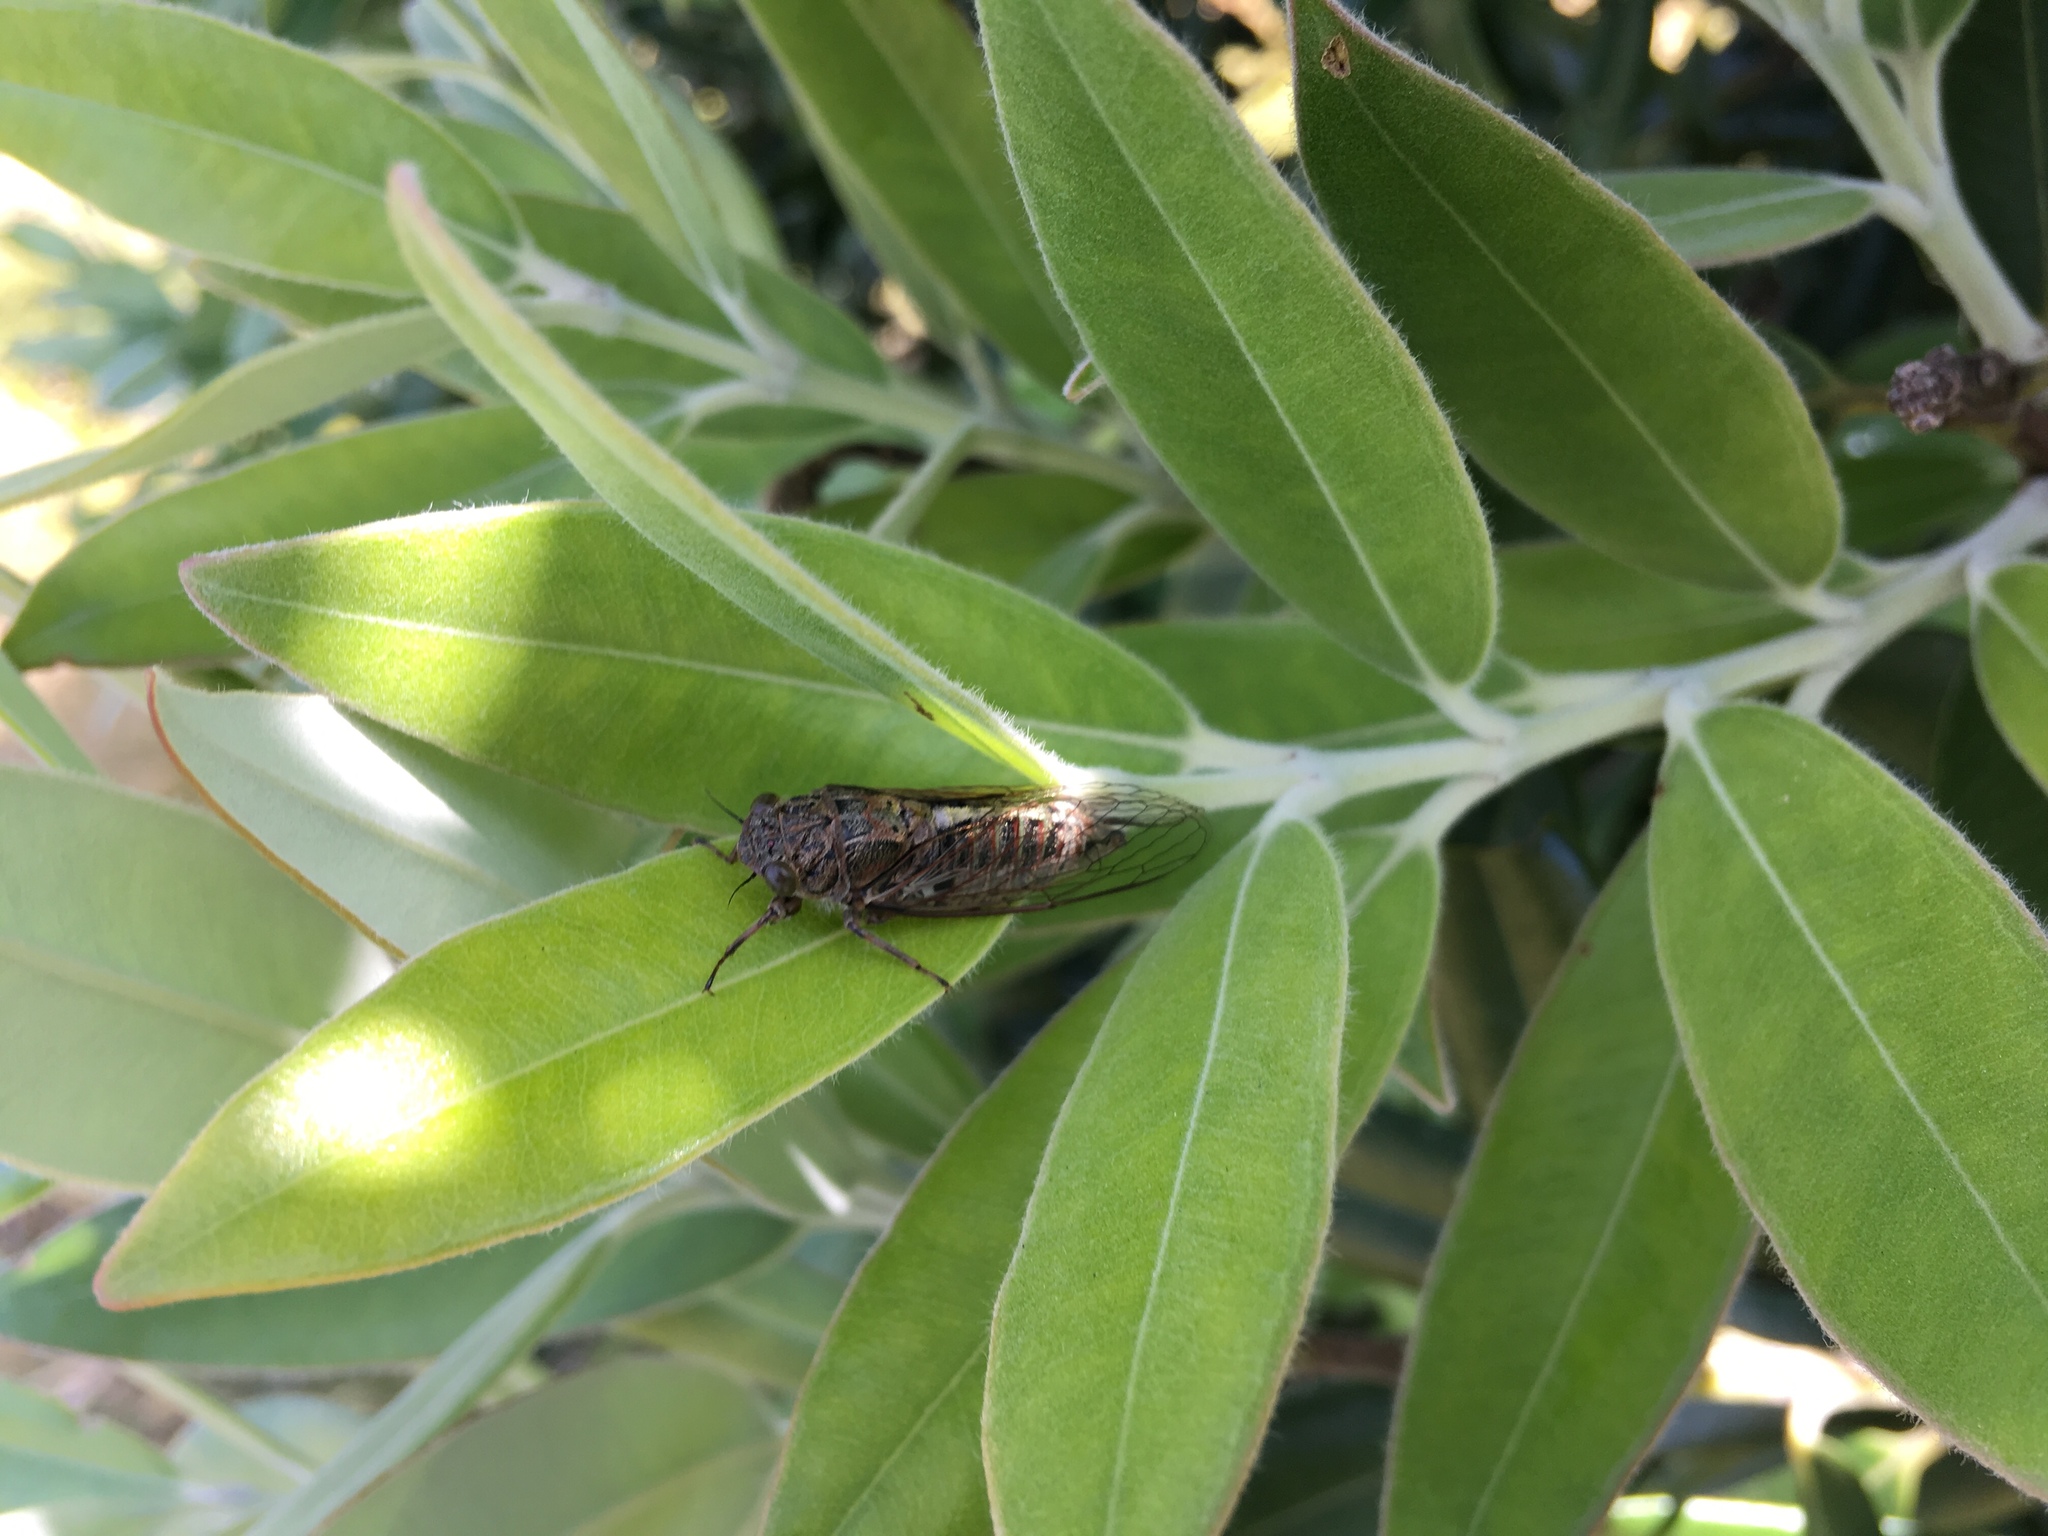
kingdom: Animalia
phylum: Arthropoda
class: Insecta
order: Hemiptera
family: Cicadidae
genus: Notopsalta
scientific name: Notopsalta sericea
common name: Clay bank cicada
